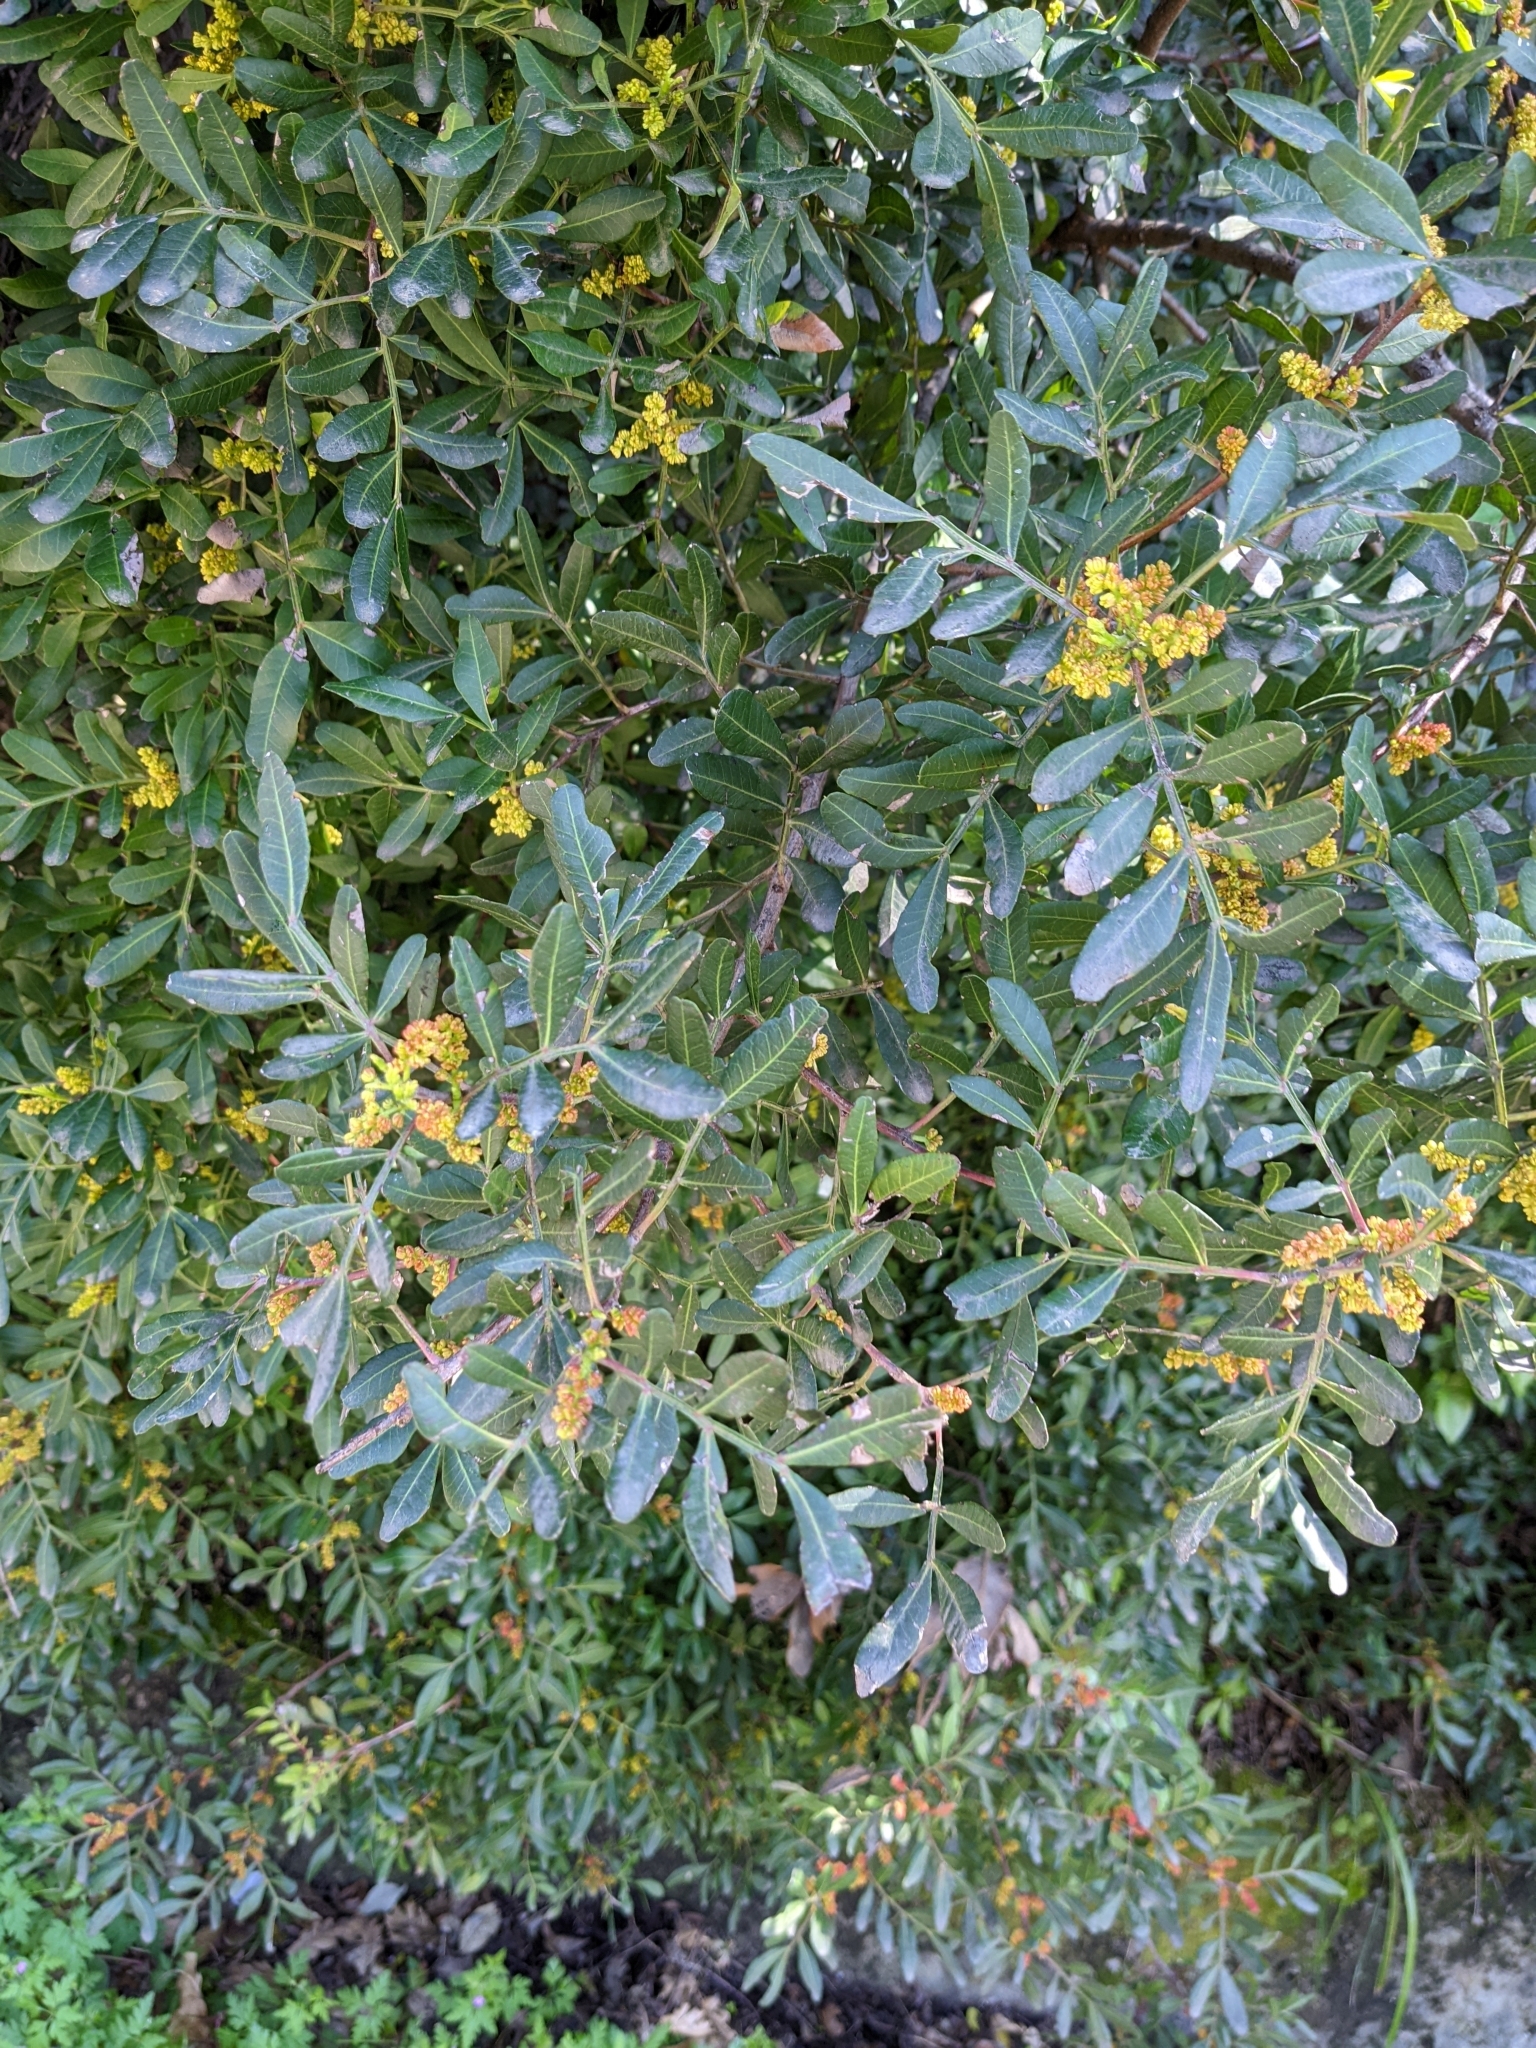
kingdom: Plantae
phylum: Tracheophyta
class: Magnoliopsida
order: Sapindales
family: Anacardiaceae
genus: Pistacia
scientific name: Pistacia lentiscus
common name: Lentisk
